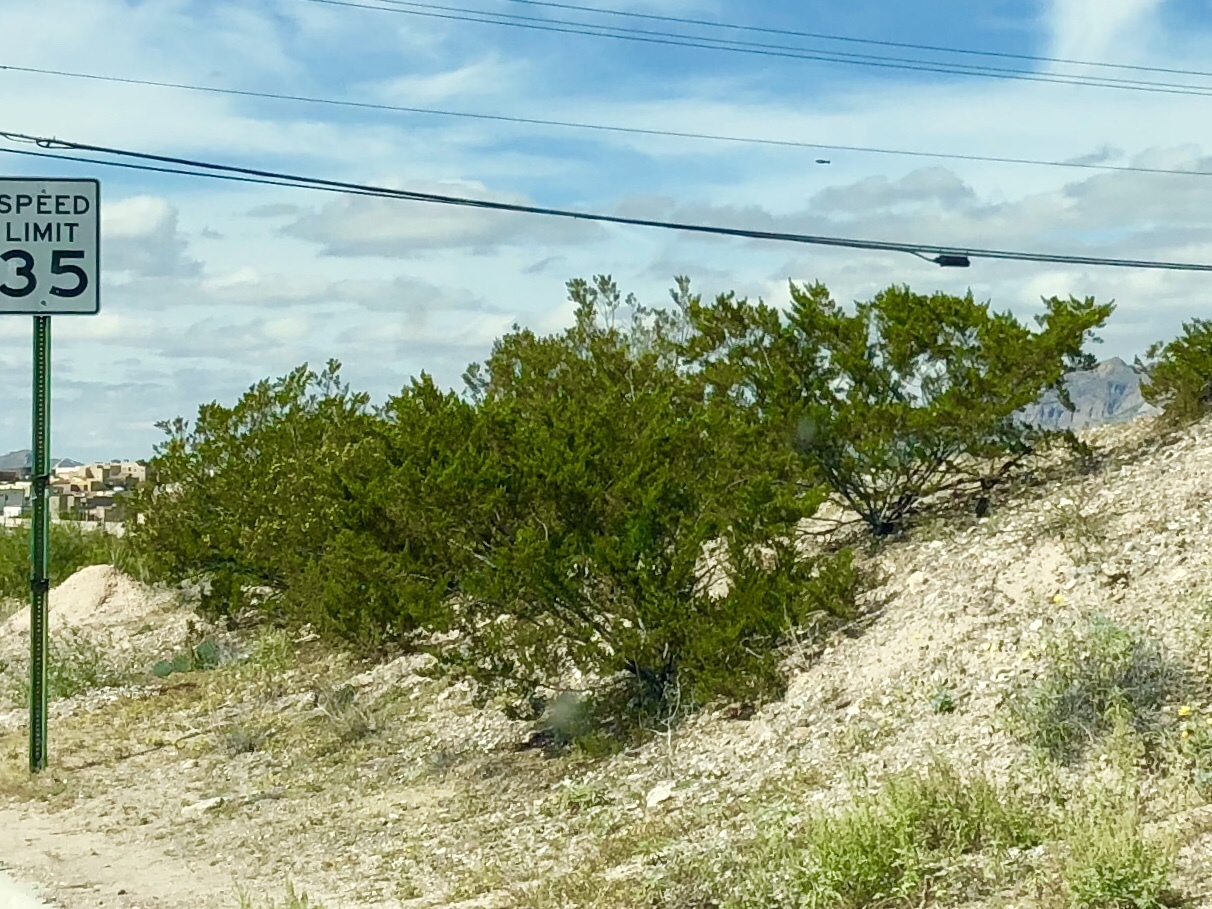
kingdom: Plantae
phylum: Tracheophyta
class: Magnoliopsida
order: Zygophyllales
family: Zygophyllaceae
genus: Larrea
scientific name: Larrea tridentata
